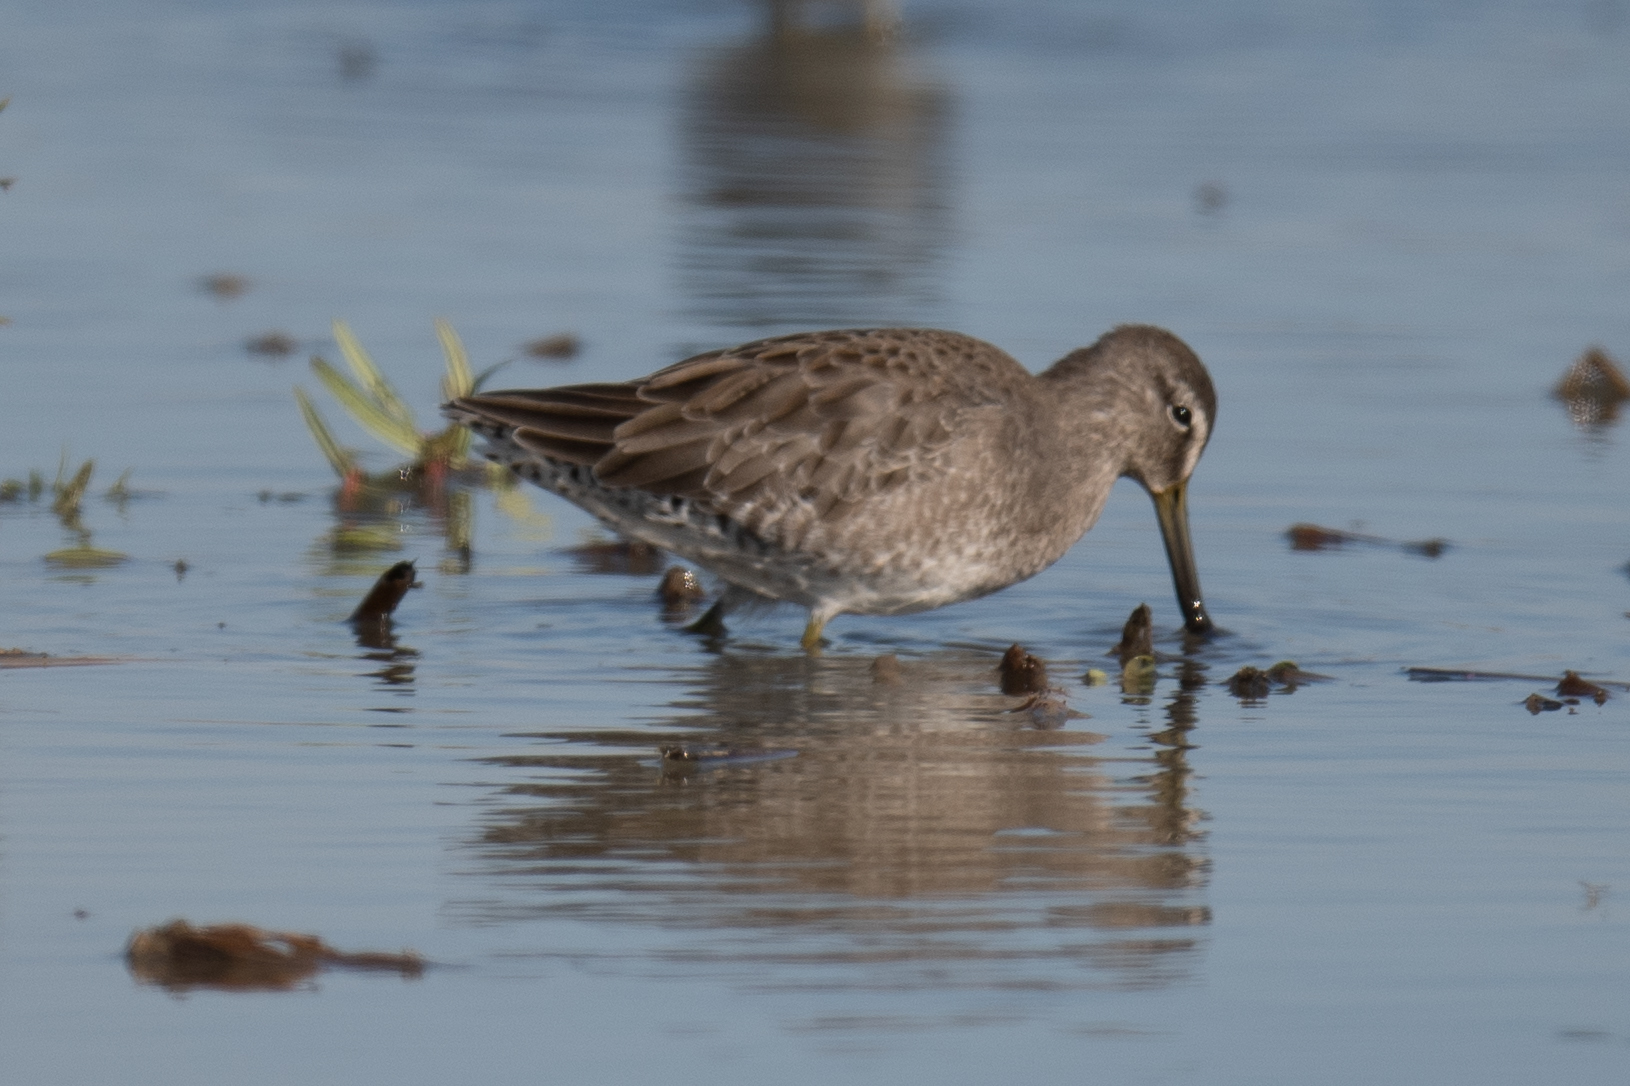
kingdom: Animalia
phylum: Chordata
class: Aves
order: Charadriiformes
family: Scolopacidae
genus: Limnodromus
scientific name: Limnodromus scolopaceus
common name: Long-billed dowitcher
